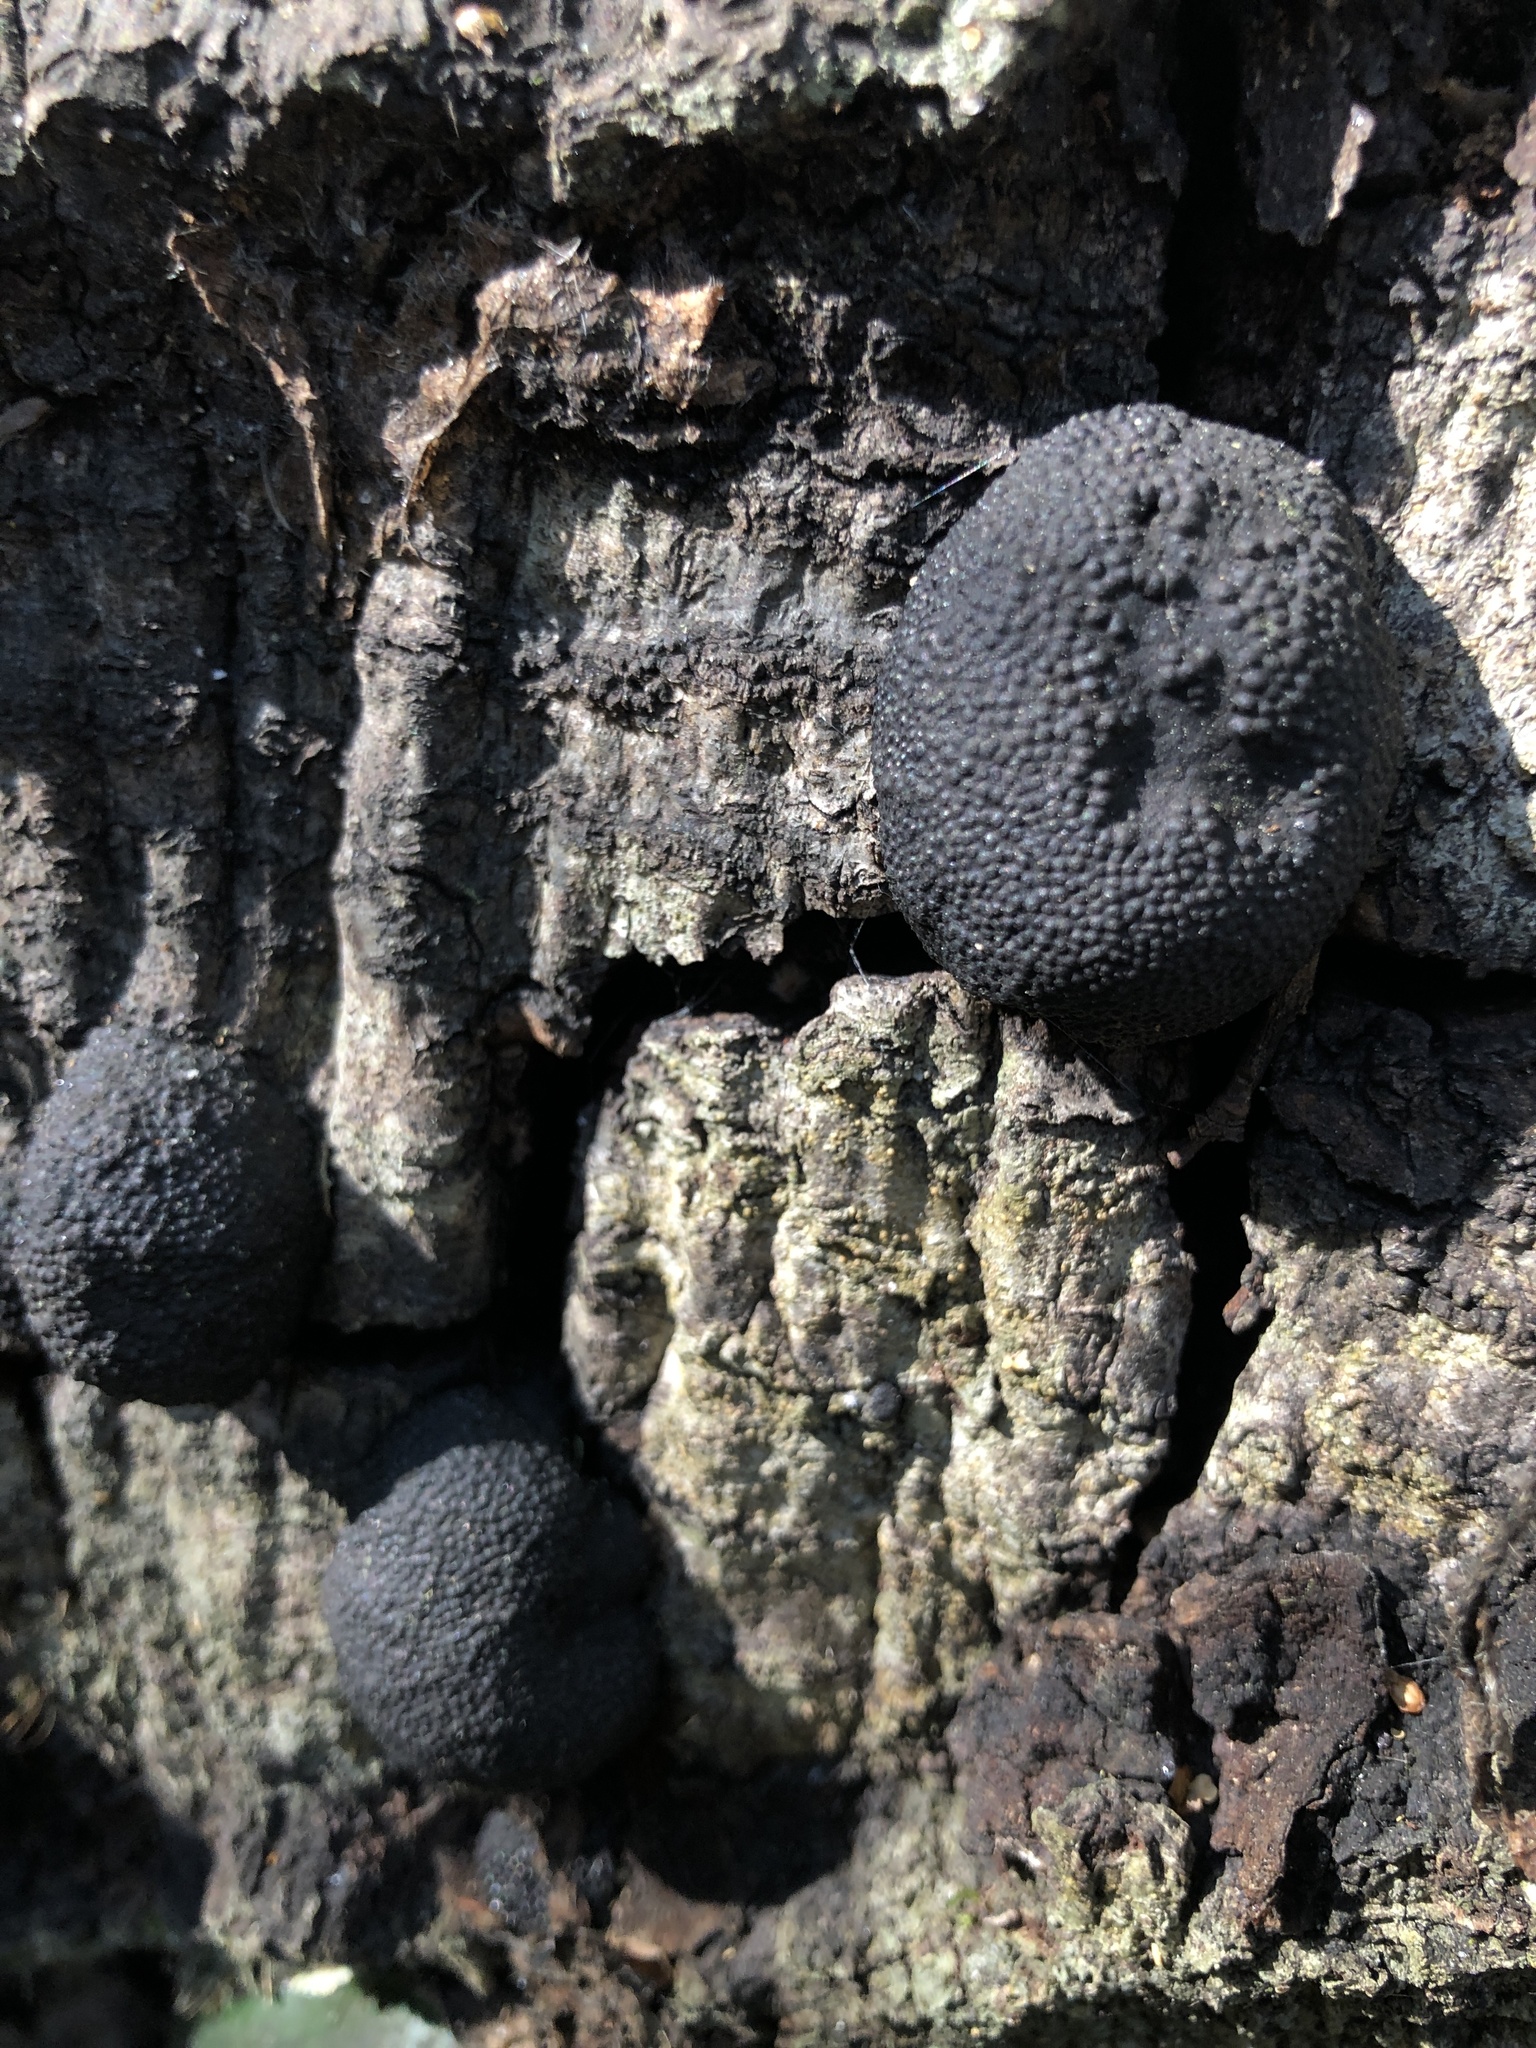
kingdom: Fungi
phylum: Ascomycota
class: Sordariomycetes
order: Xylariales
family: Hypoxylaceae
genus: Annulohypoxylon
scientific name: Annulohypoxylon thouarsianum
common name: Cramp balls
